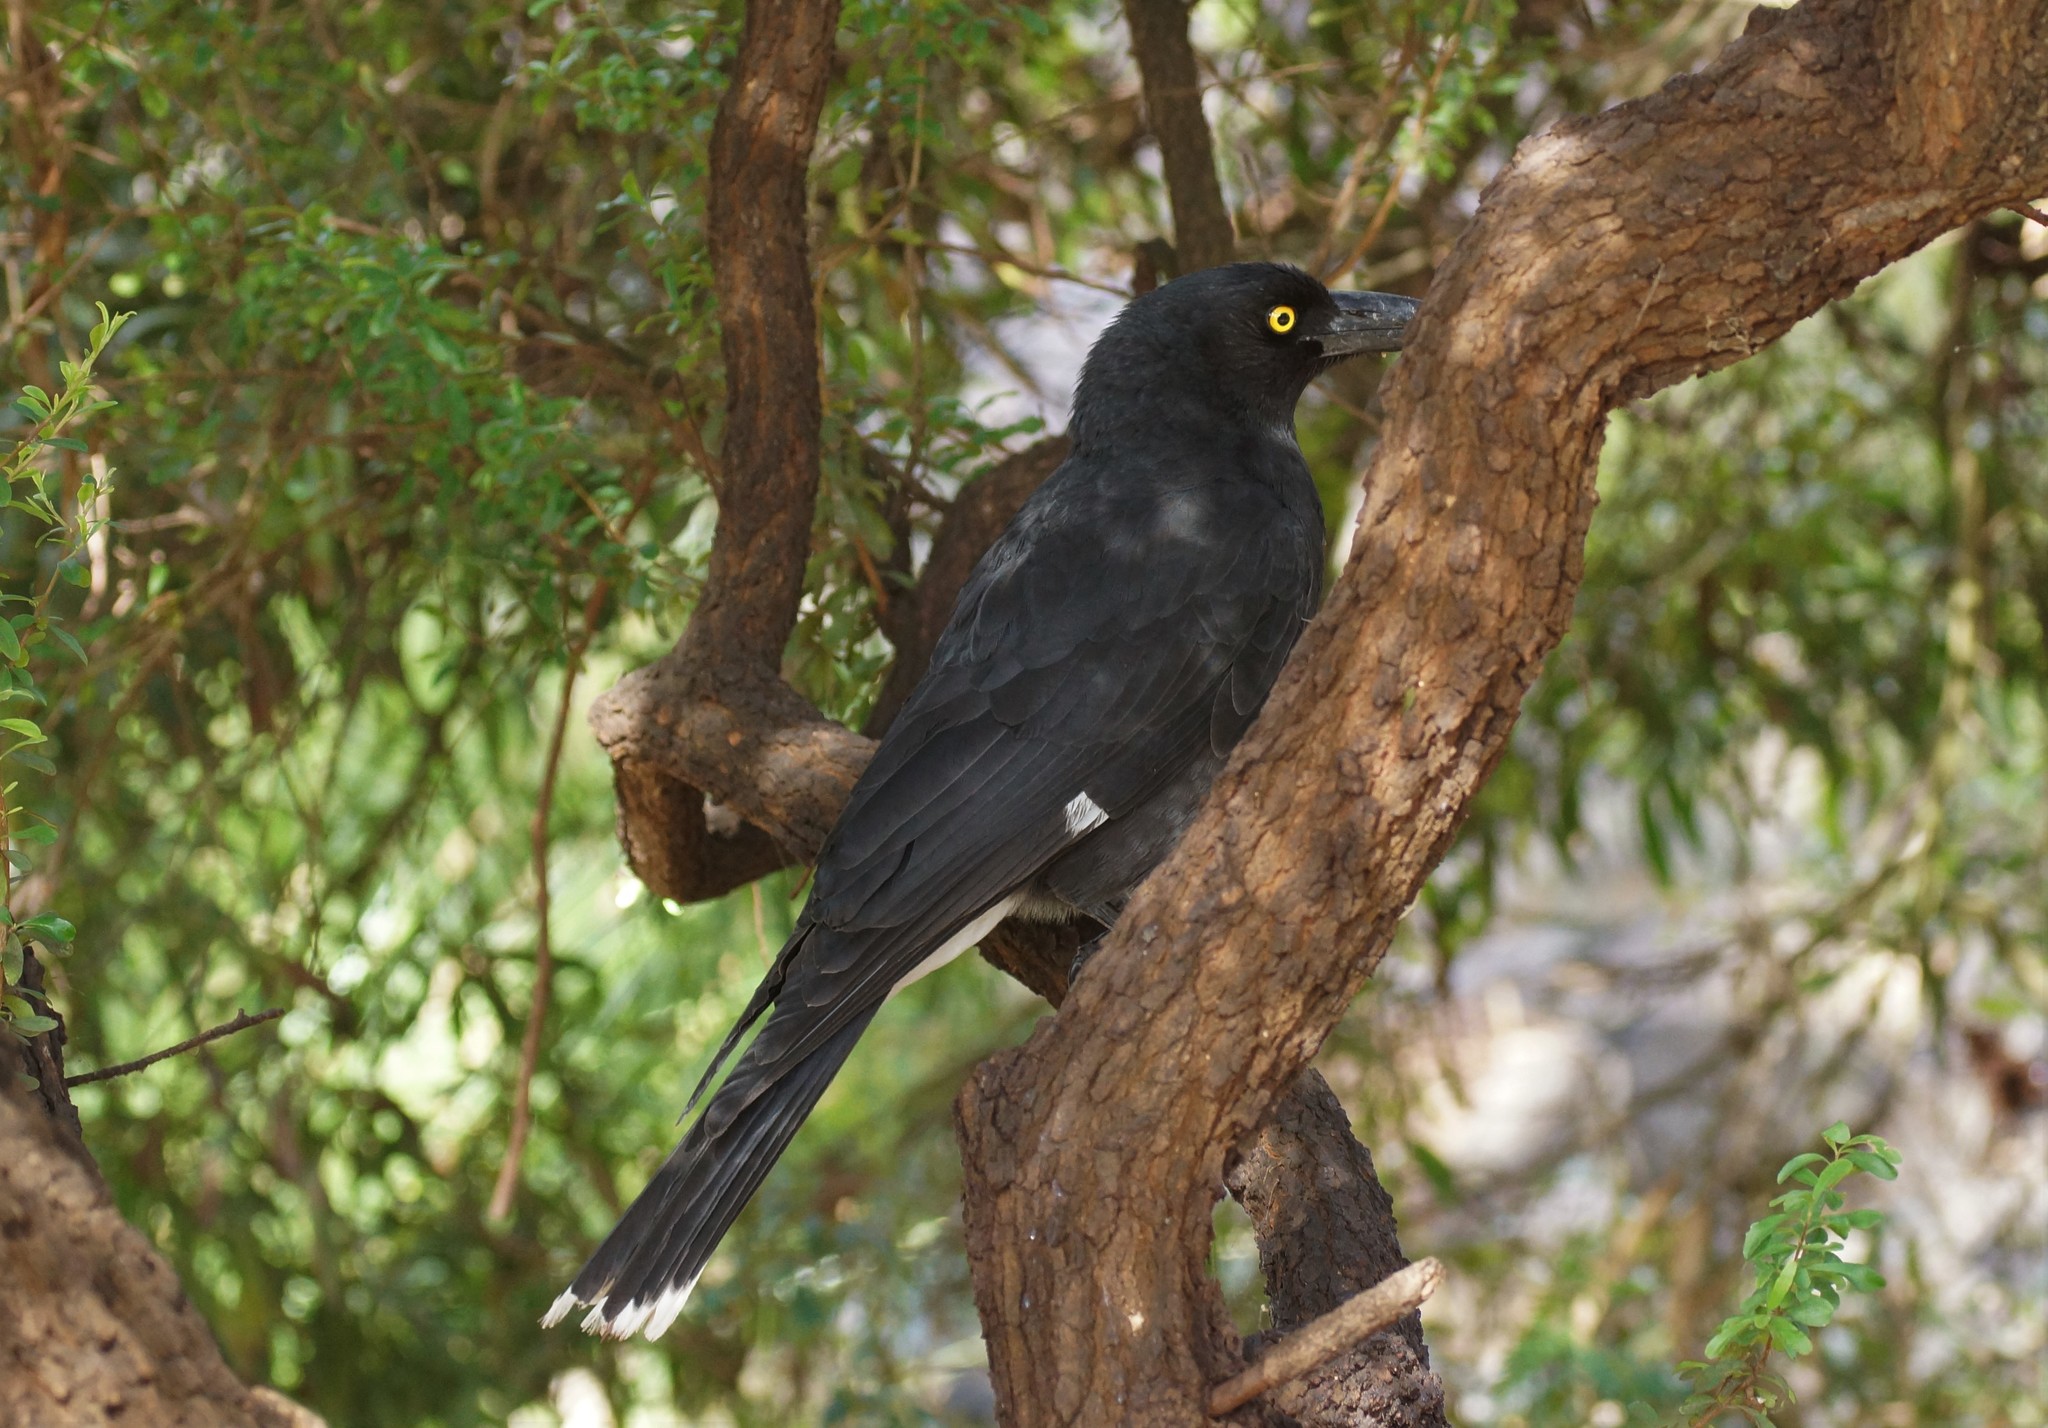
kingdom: Animalia
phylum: Chordata
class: Aves
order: Passeriformes
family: Cracticidae
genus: Strepera
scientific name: Strepera graculina
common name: Pied currawong
